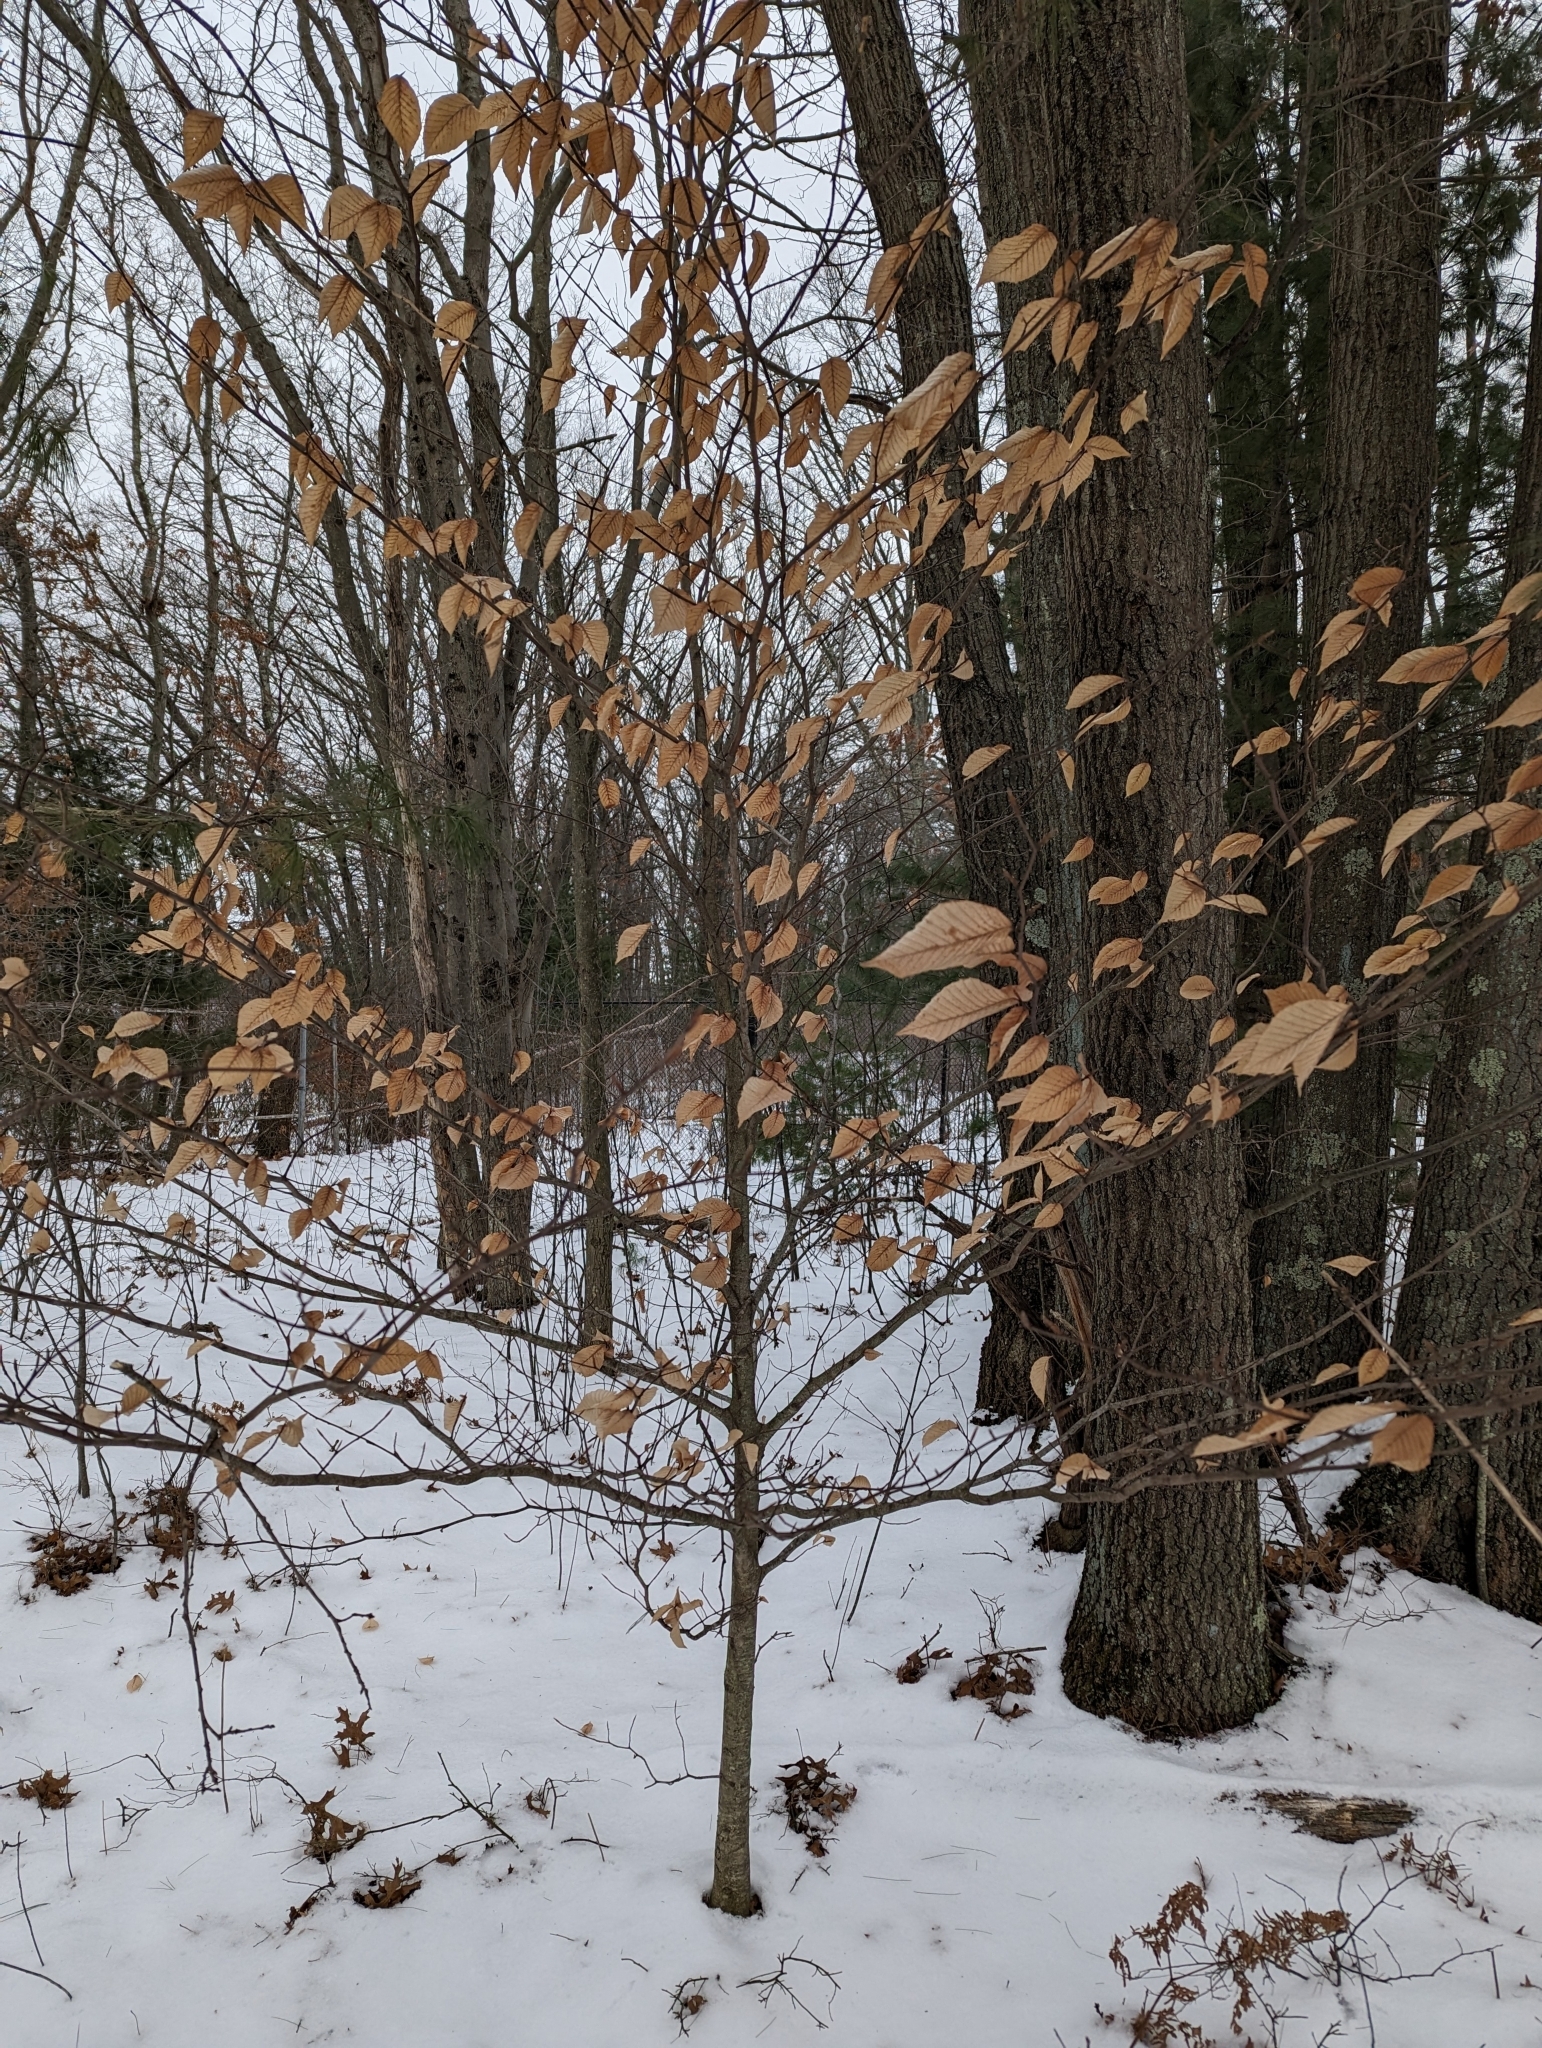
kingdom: Plantae
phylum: Tracheophyta
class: Magnoliopsida
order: Fagales
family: Fagaceae
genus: Fagus
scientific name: Fagus grandifolia
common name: American beech
